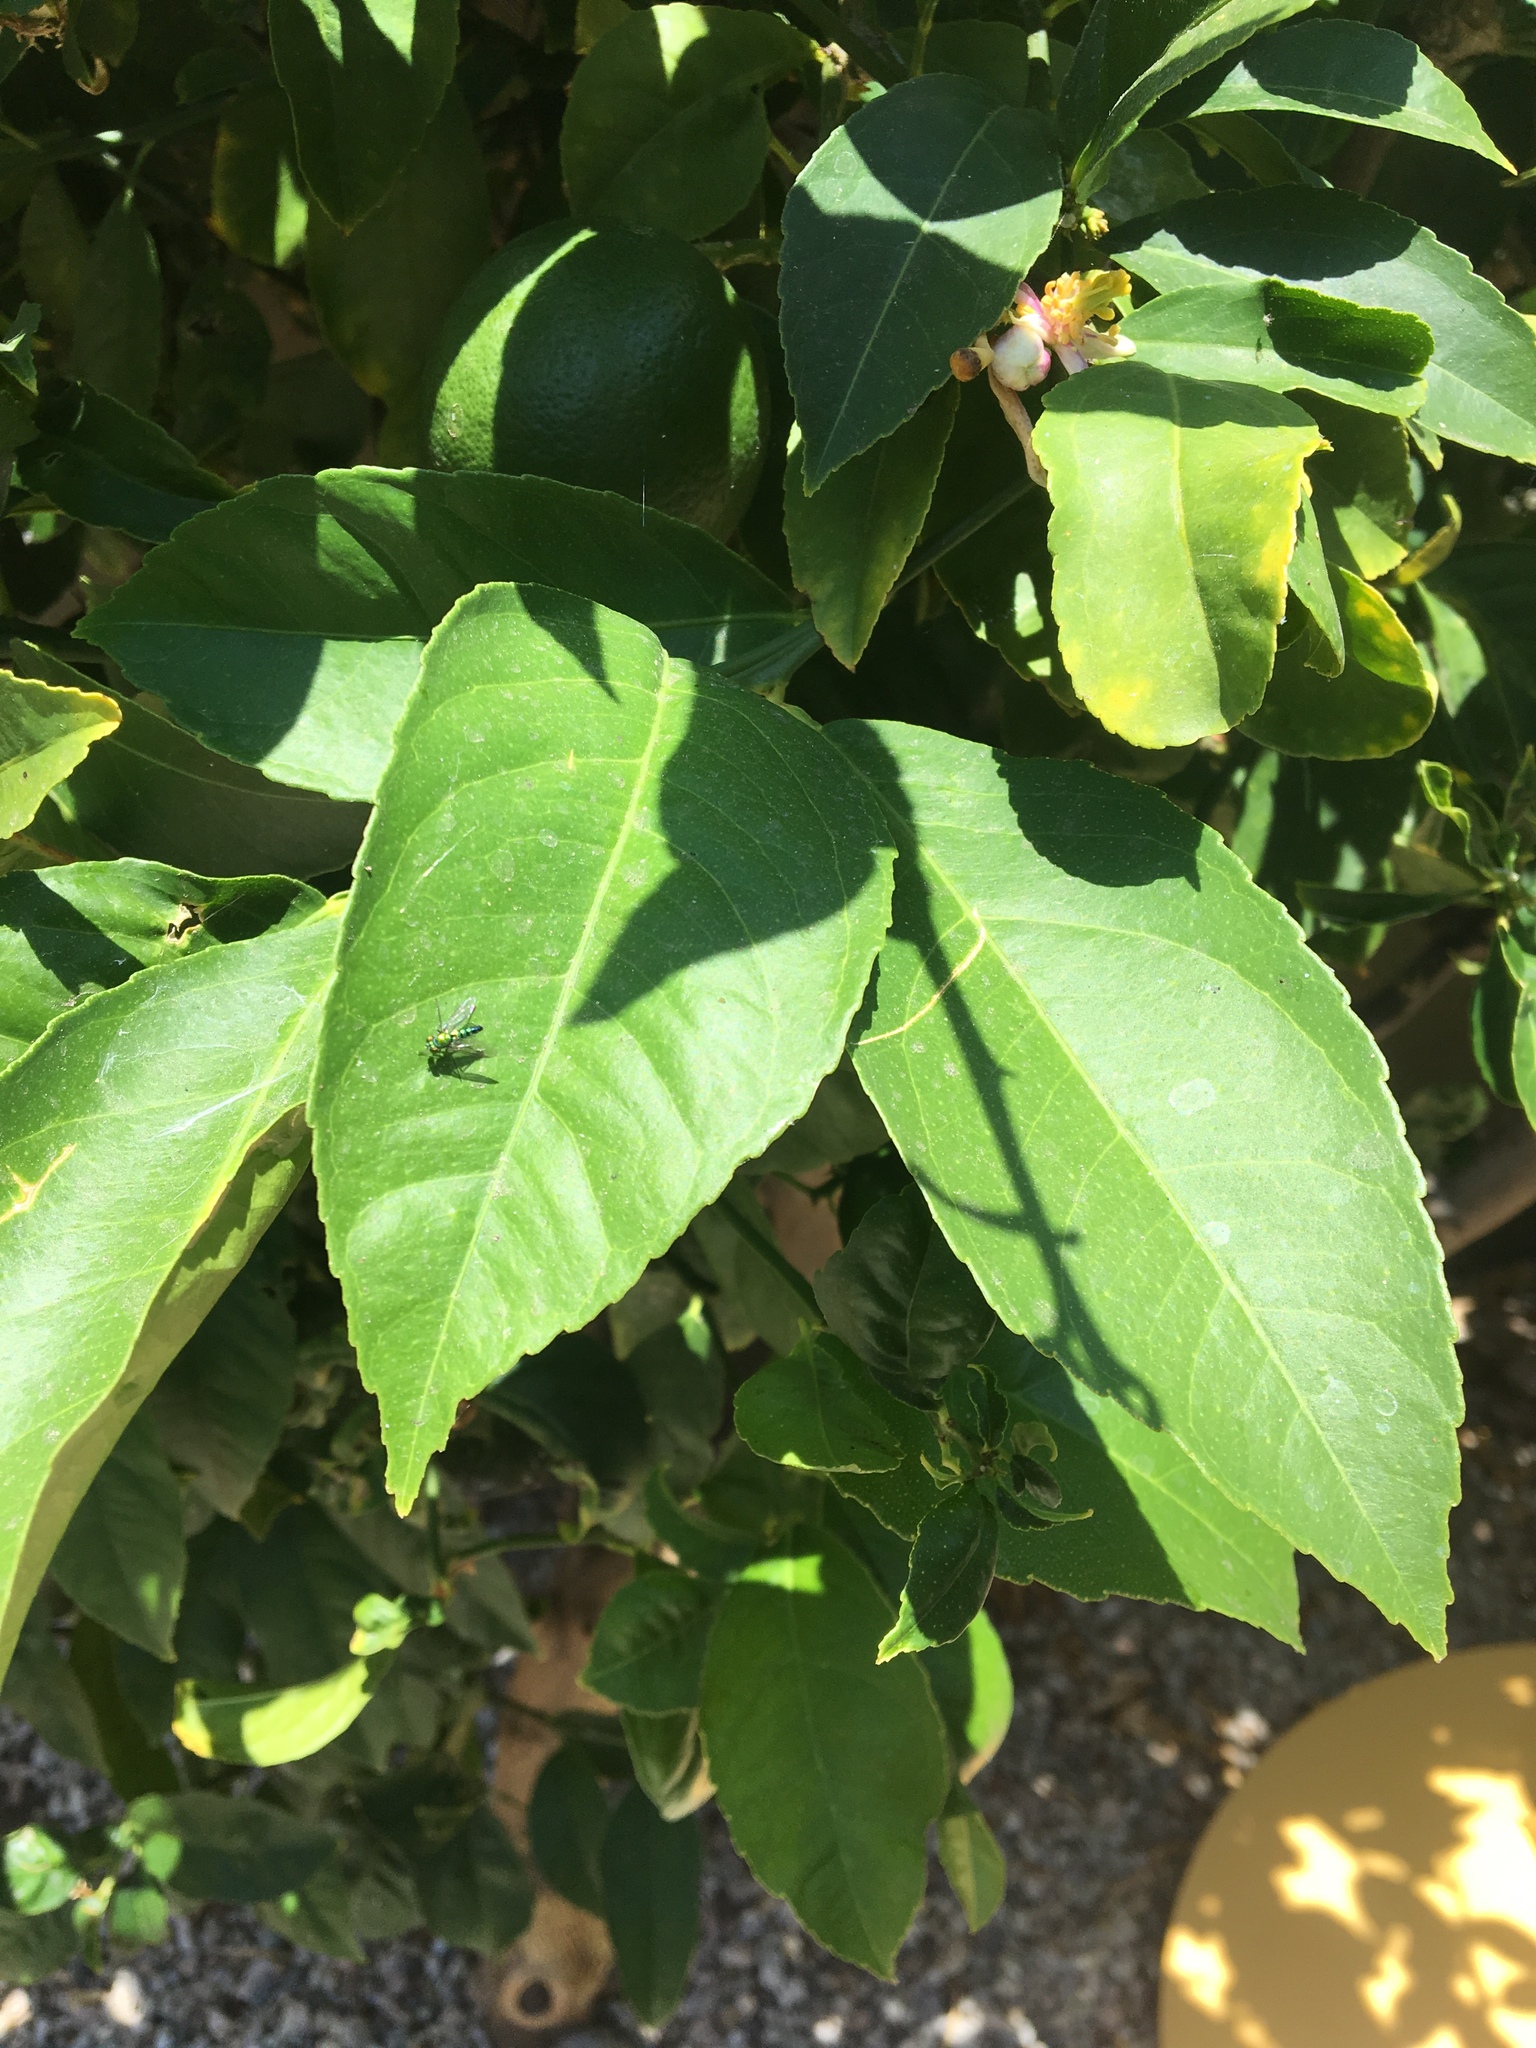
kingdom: Animalia
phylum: Arthropoda
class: Insecta
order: Diptera
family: Dolichopodidae
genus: Condylostylus
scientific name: Condylostylus longicornis
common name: Long-legged fly
